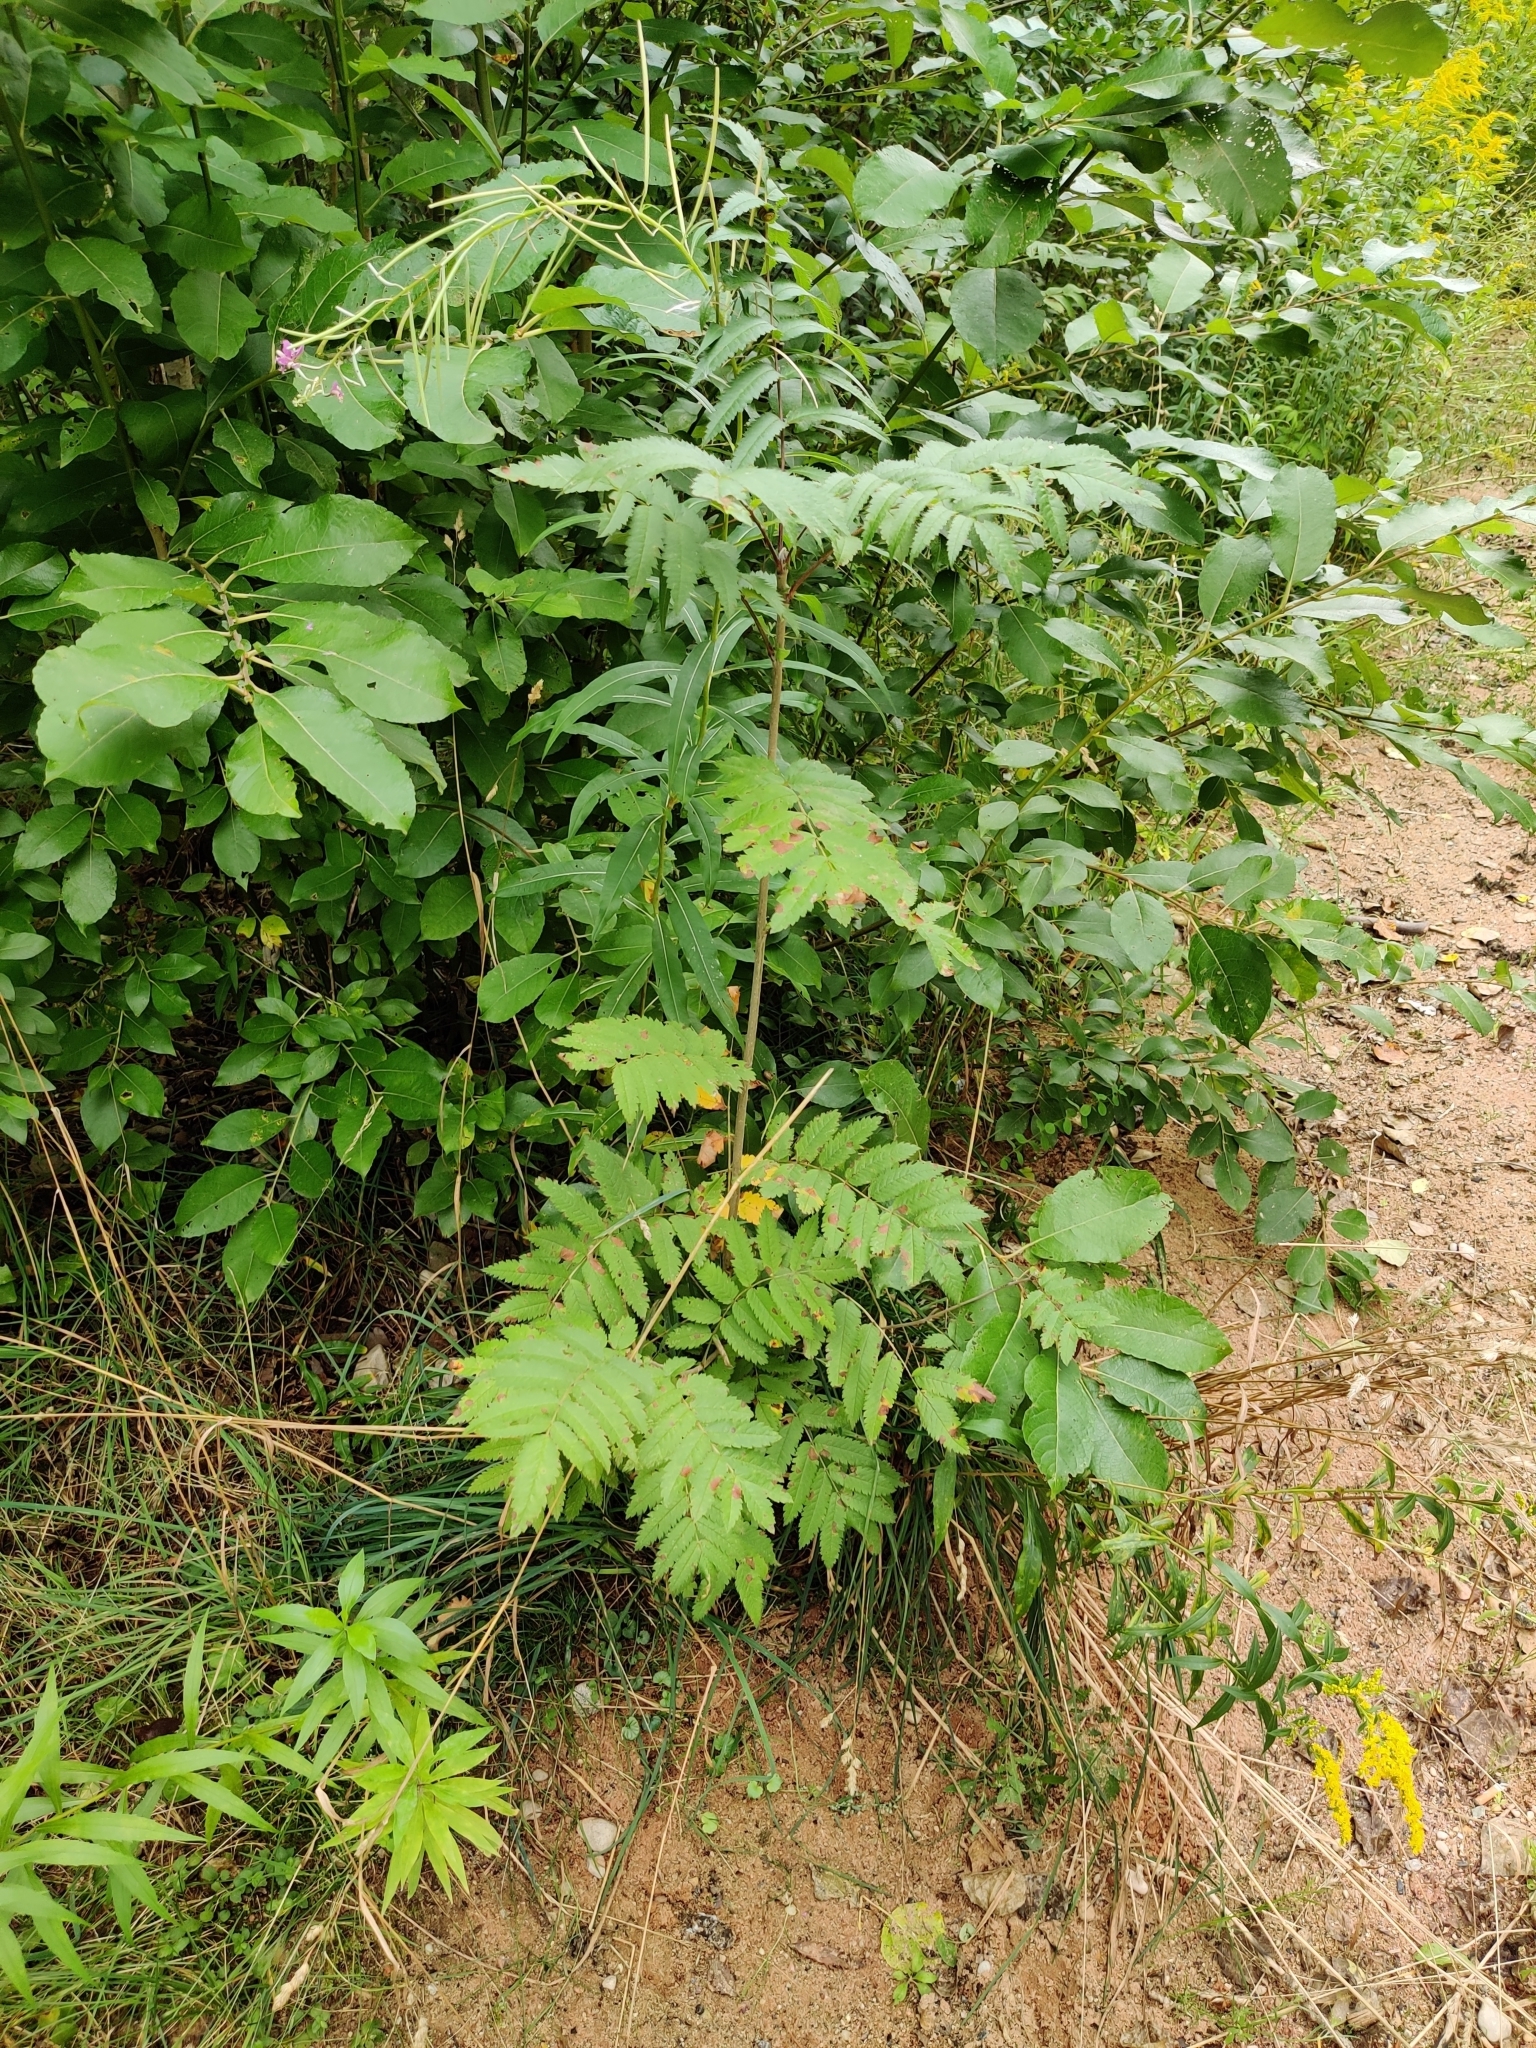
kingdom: Plantae
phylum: Tracheophyta
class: Magnoliopsida
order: Rosales
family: Rosaceae
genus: Sorbus
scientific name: Sorbus aucuparia
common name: Rowan
